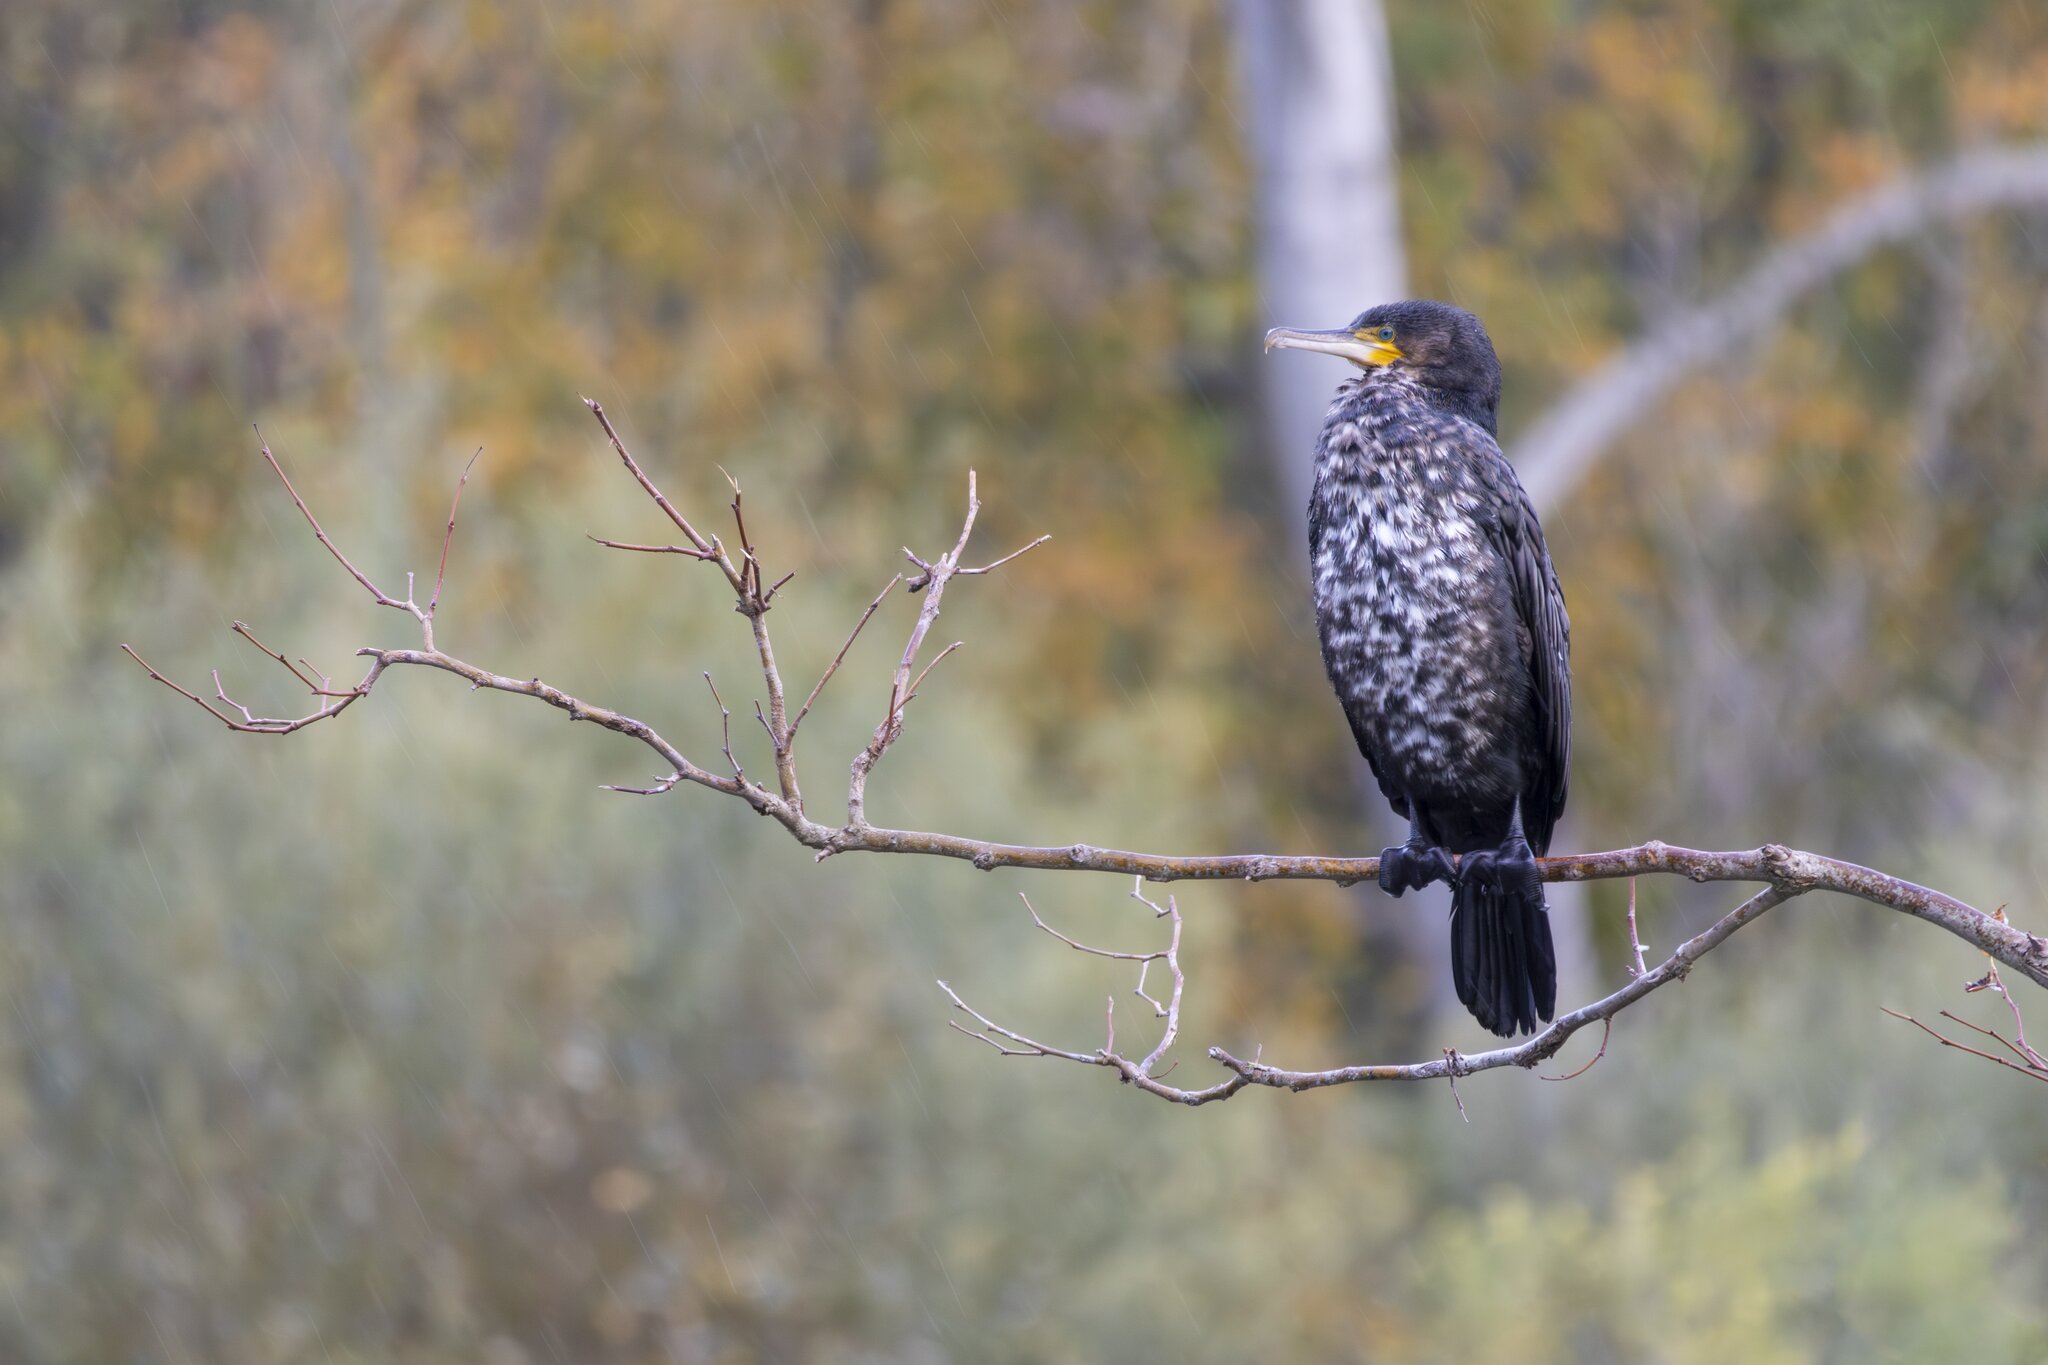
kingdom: Animalia
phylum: Chordata
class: Aves
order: Suliformes
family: Phalacrocoracidae
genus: Phalacrocorax
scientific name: Phalacrocorax carbo
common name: Great cormorant
